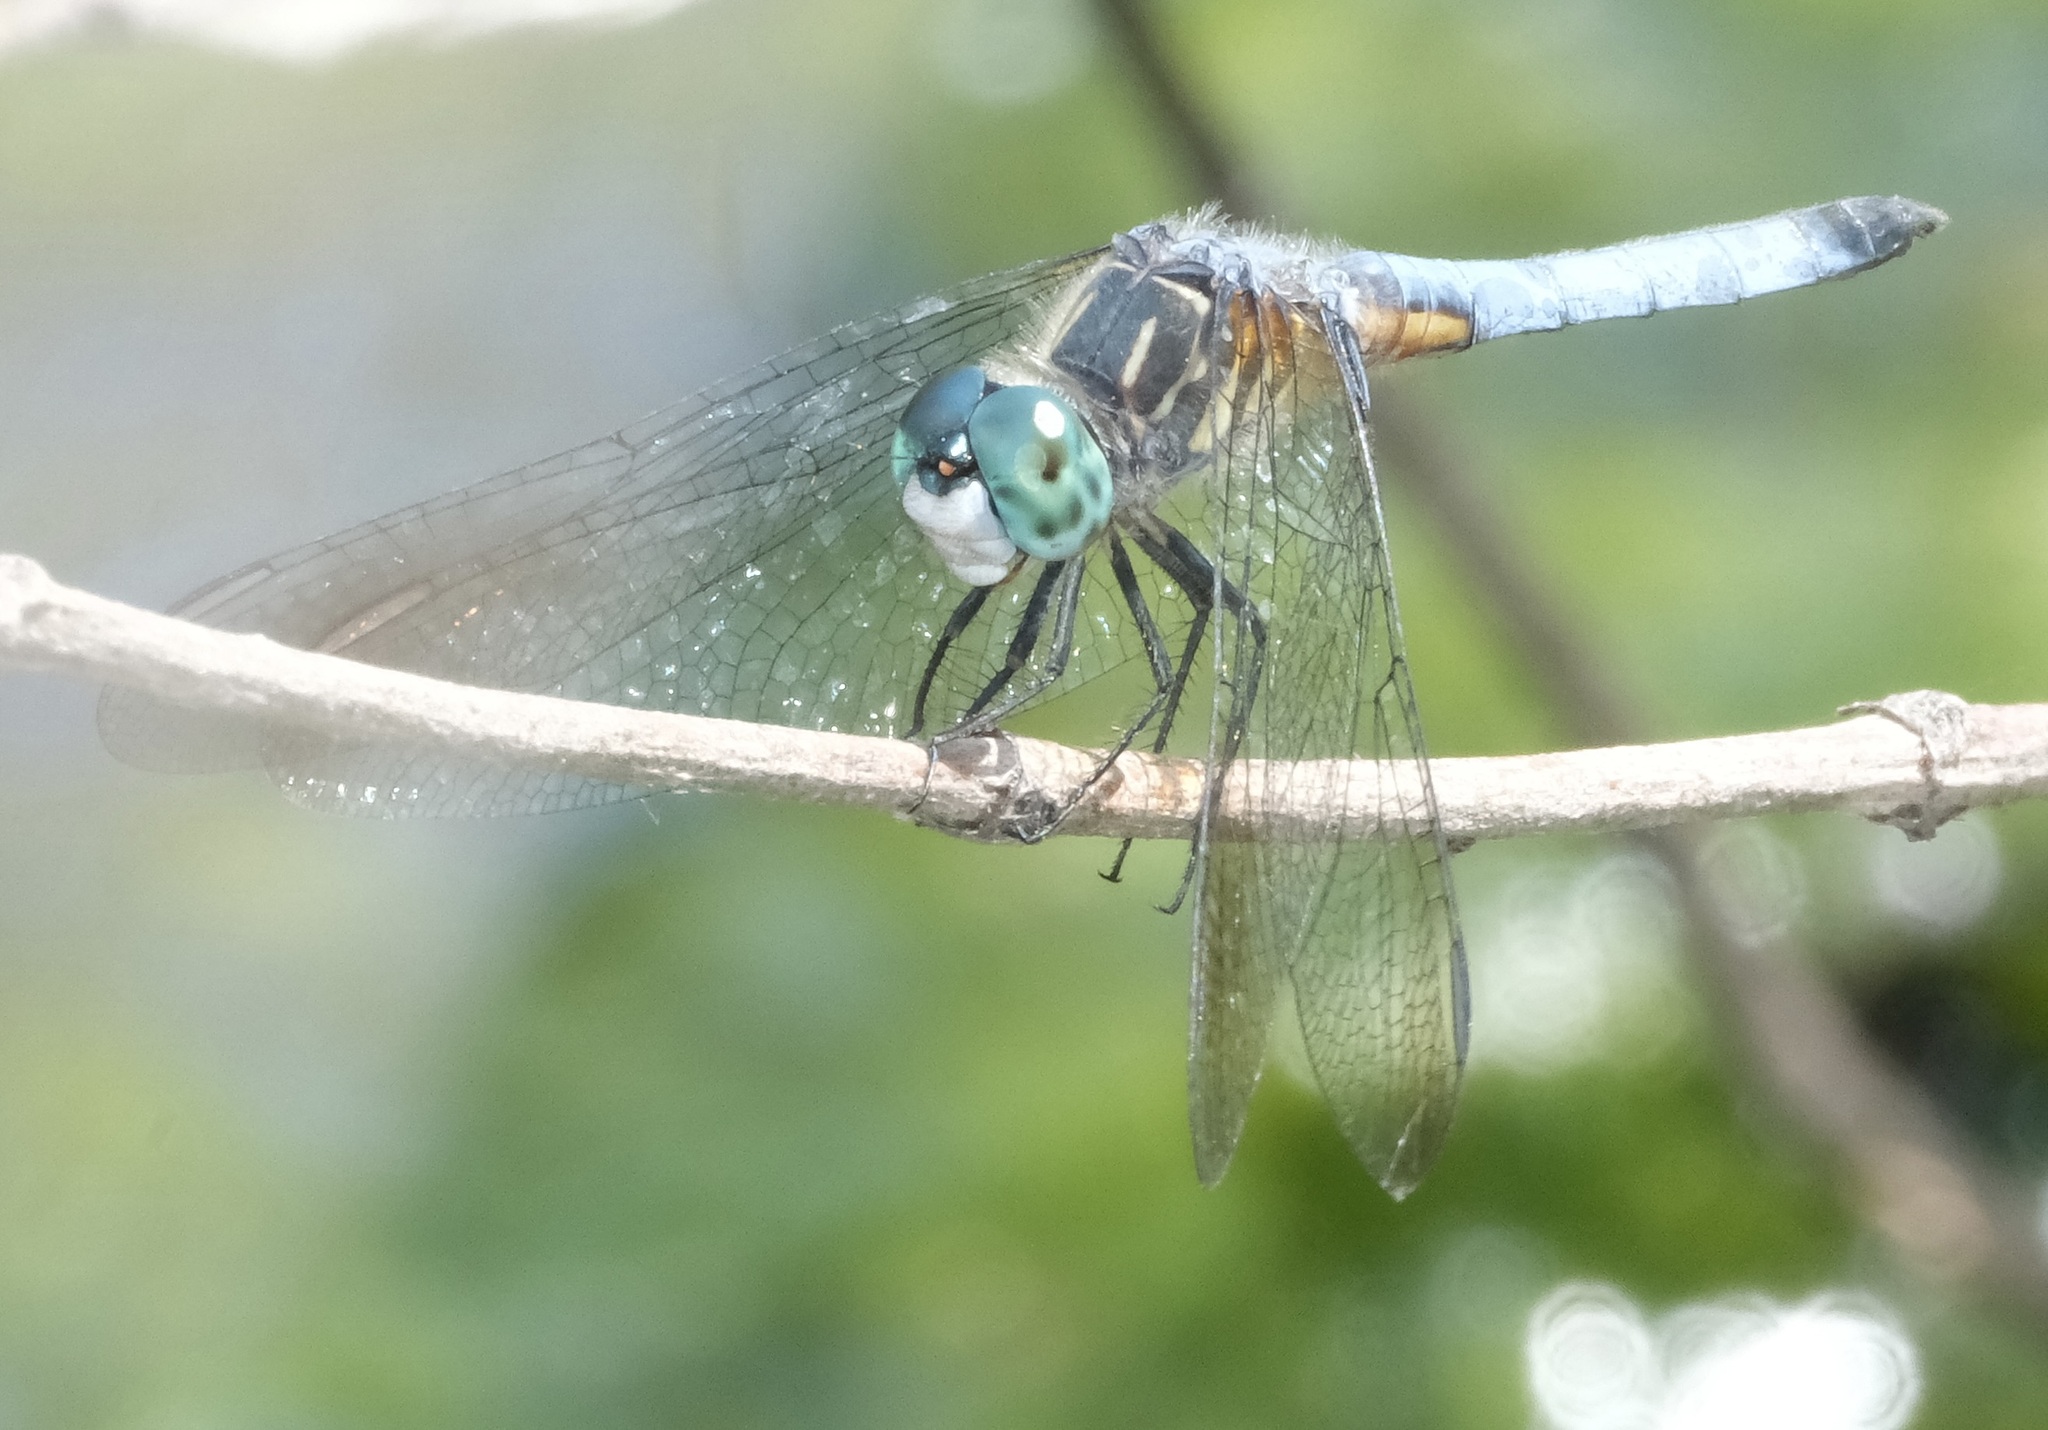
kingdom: Animalia
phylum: Arthropoda
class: Insecta
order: Odonata
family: Libellulidae
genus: Pachydiplax
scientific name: Pachydiplax longipennis
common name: Blue dasher
